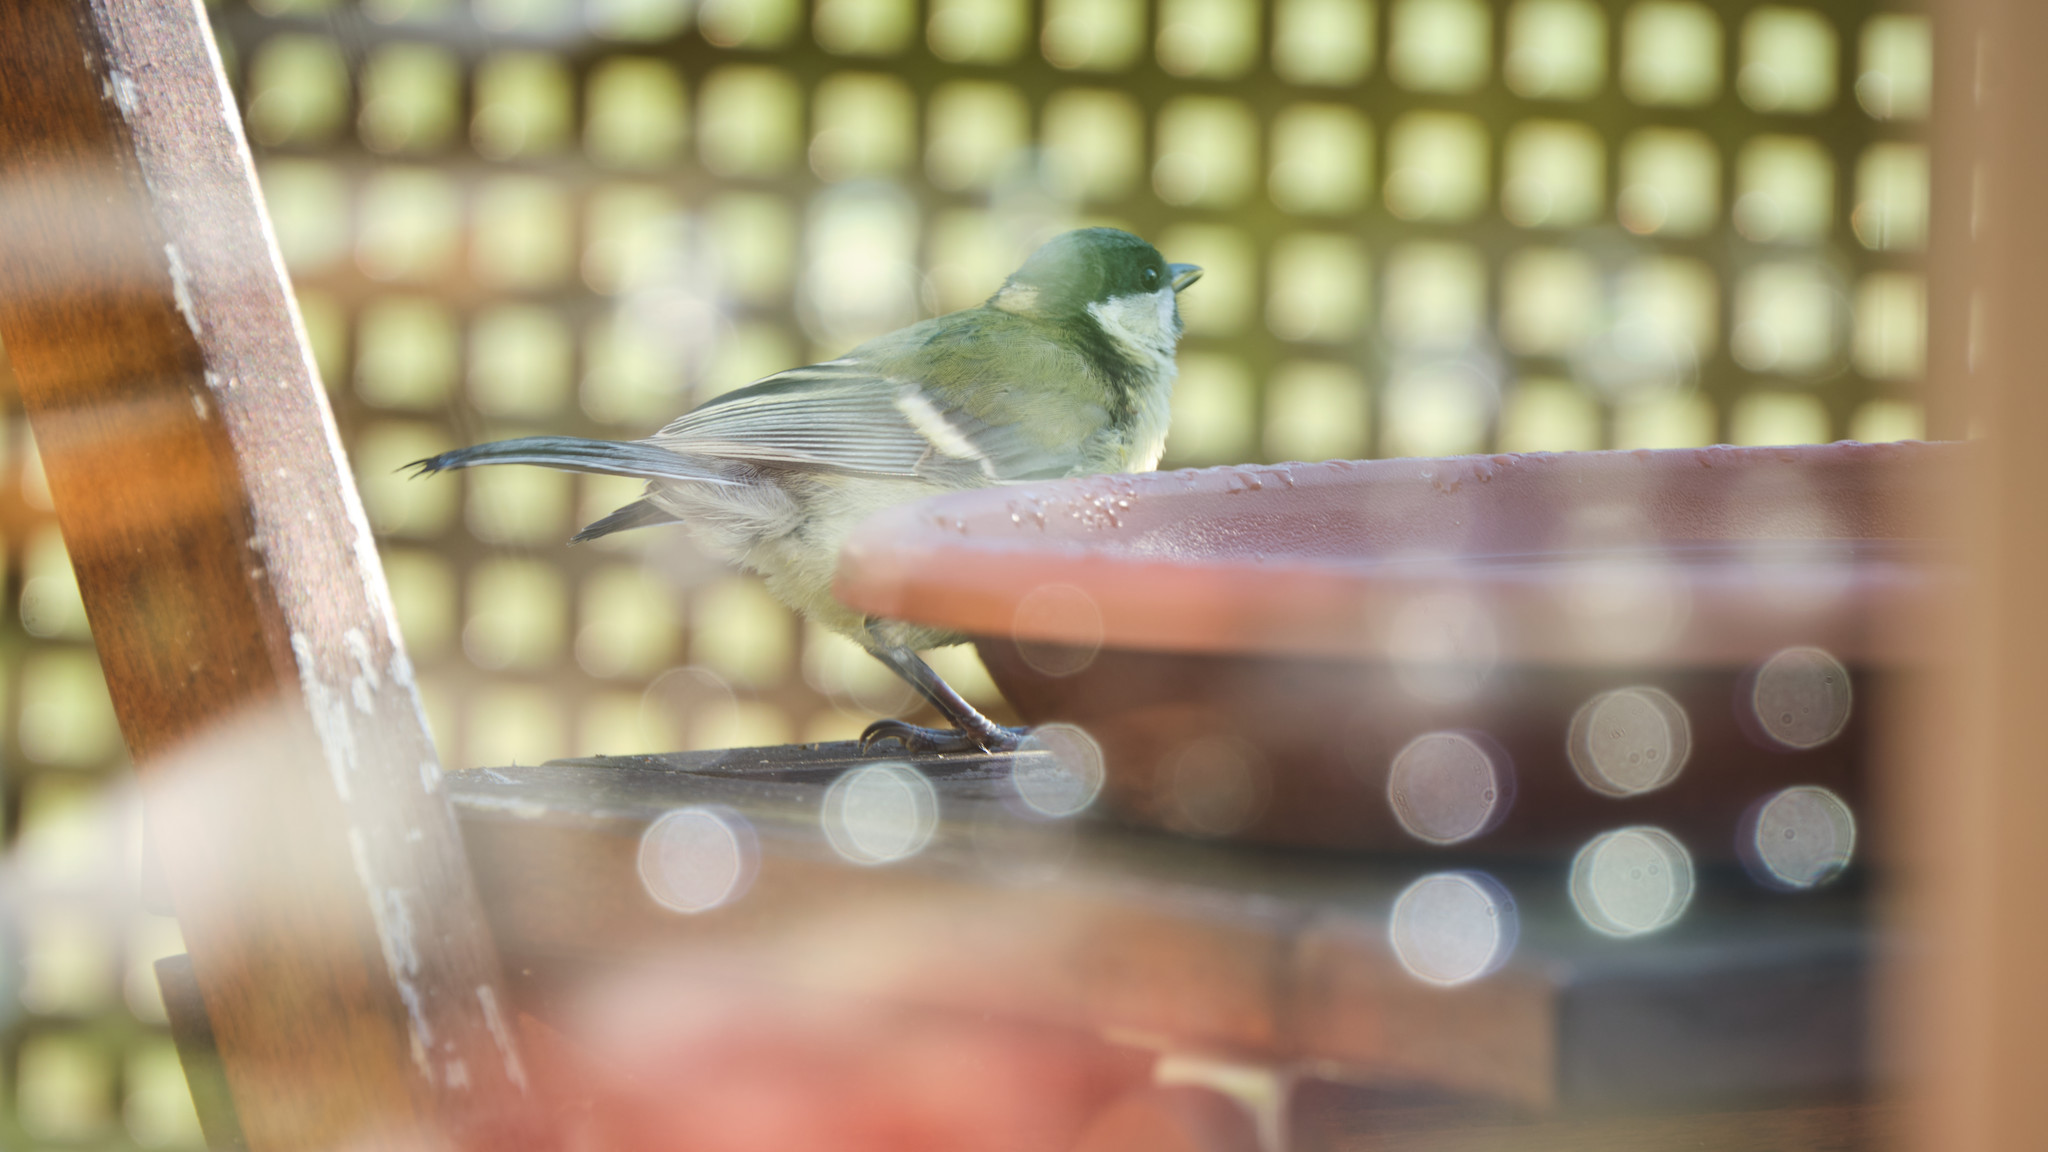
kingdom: Animalia
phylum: Chordata
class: Aves
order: Passeriformes
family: Paridae
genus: Parus
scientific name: Parus major
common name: Great tit
